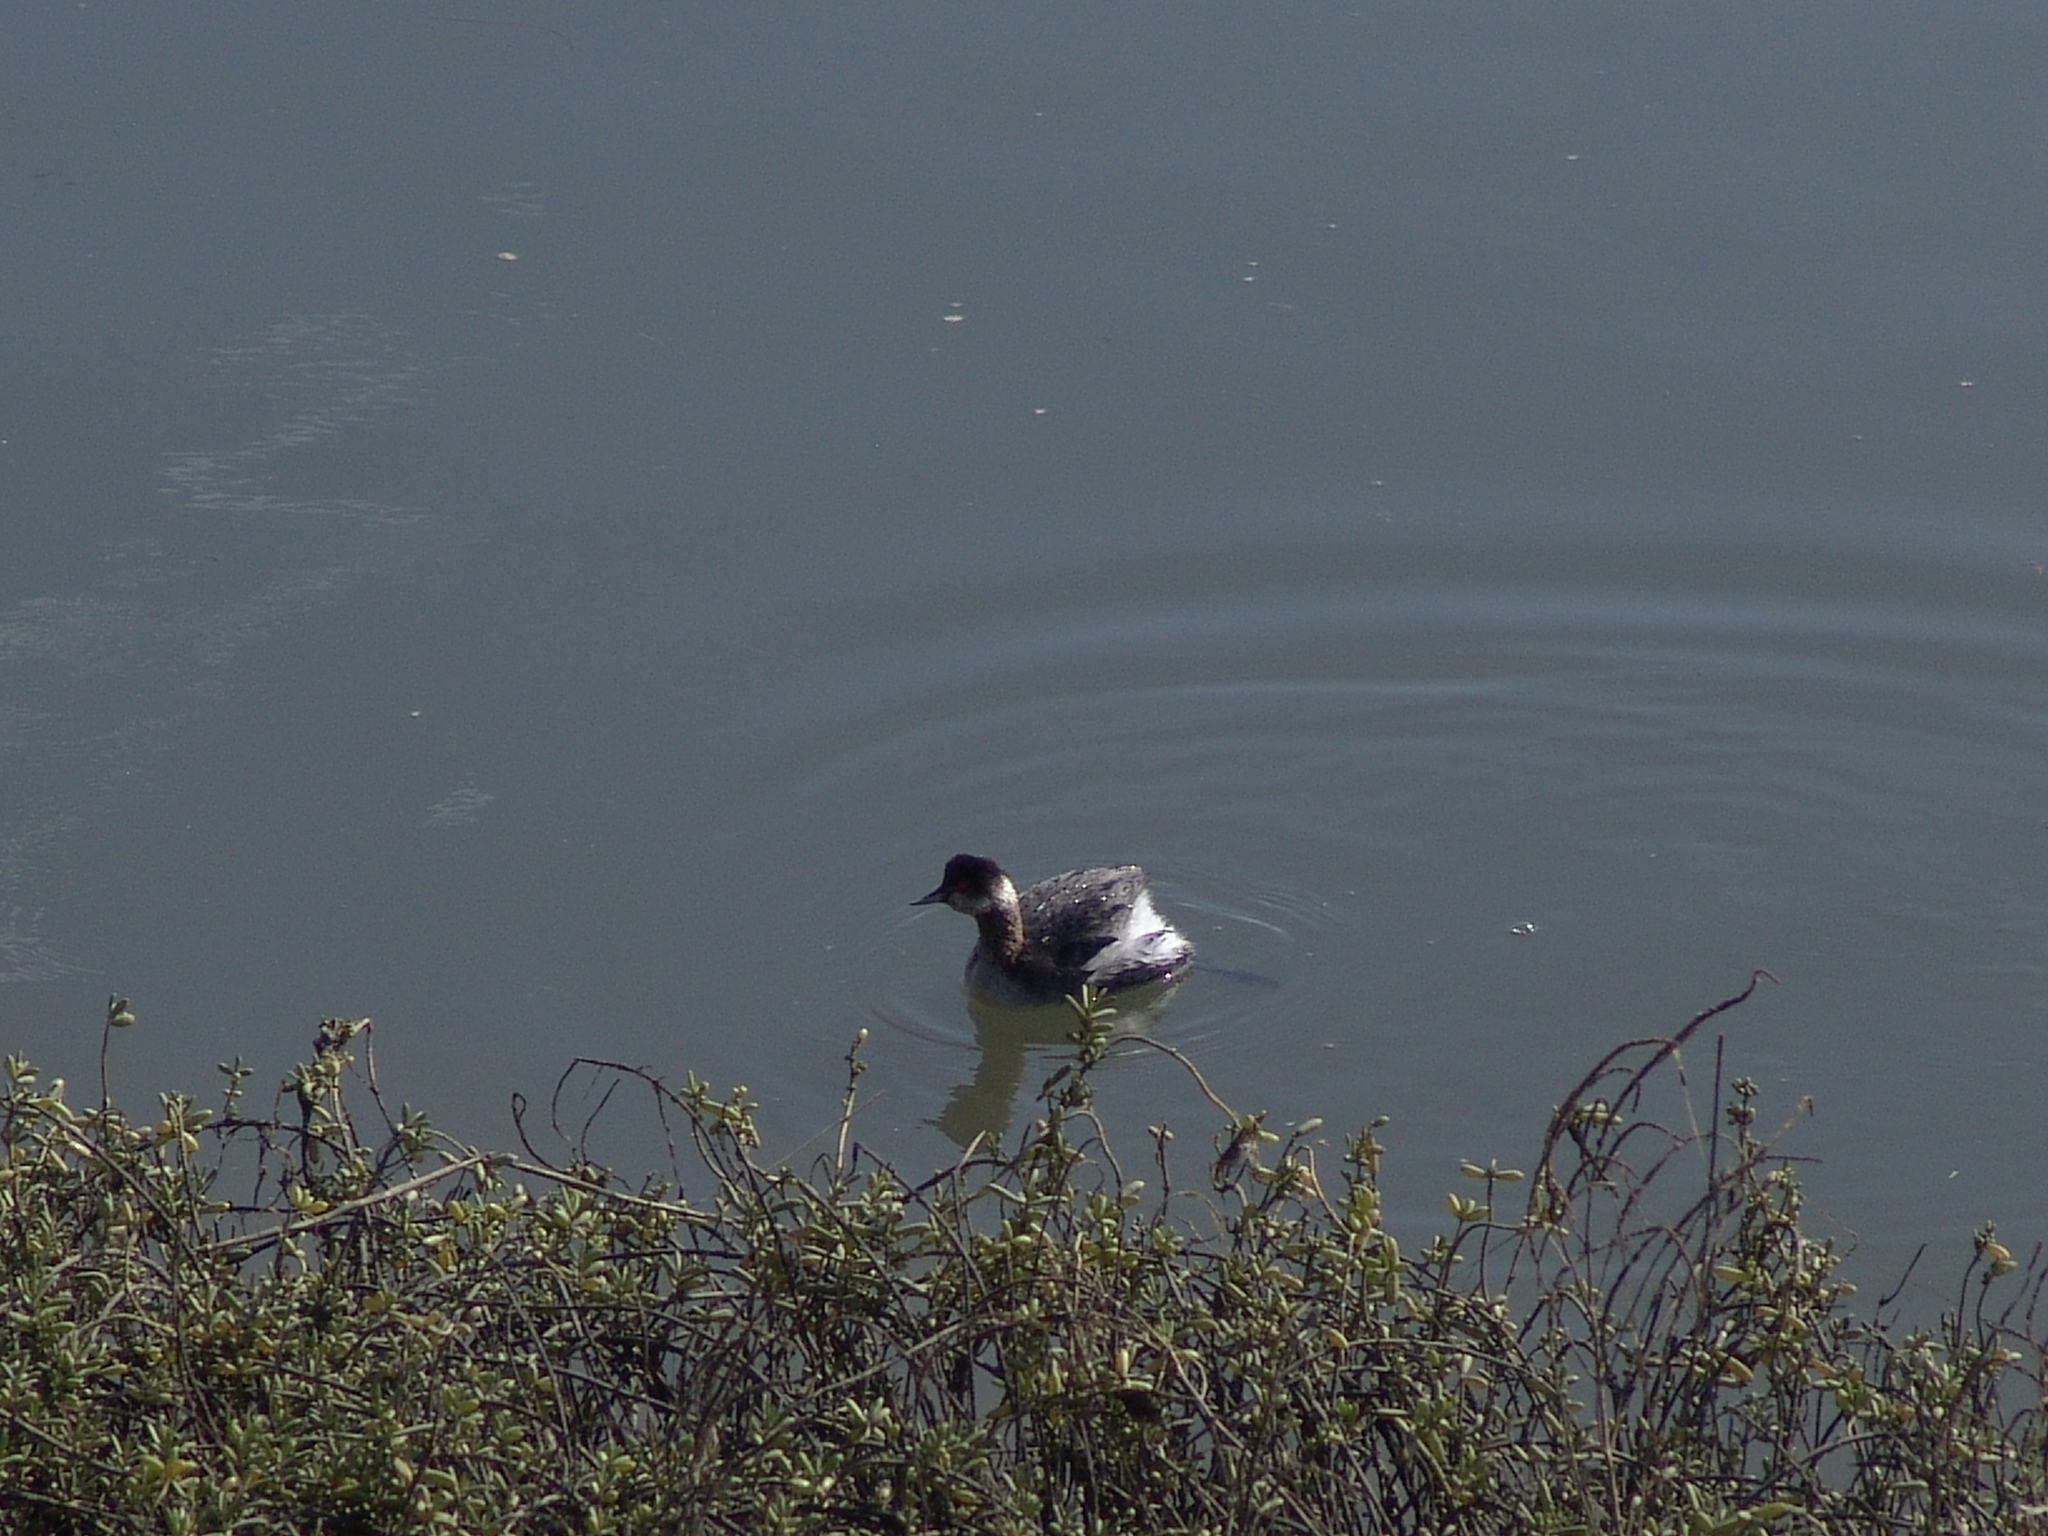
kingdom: Animalia
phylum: Chordata
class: Aves
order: Podicipediformes
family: Podicipedidae
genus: Podiceps
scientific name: Podiceps nigricollis
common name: Black-necked grebe
